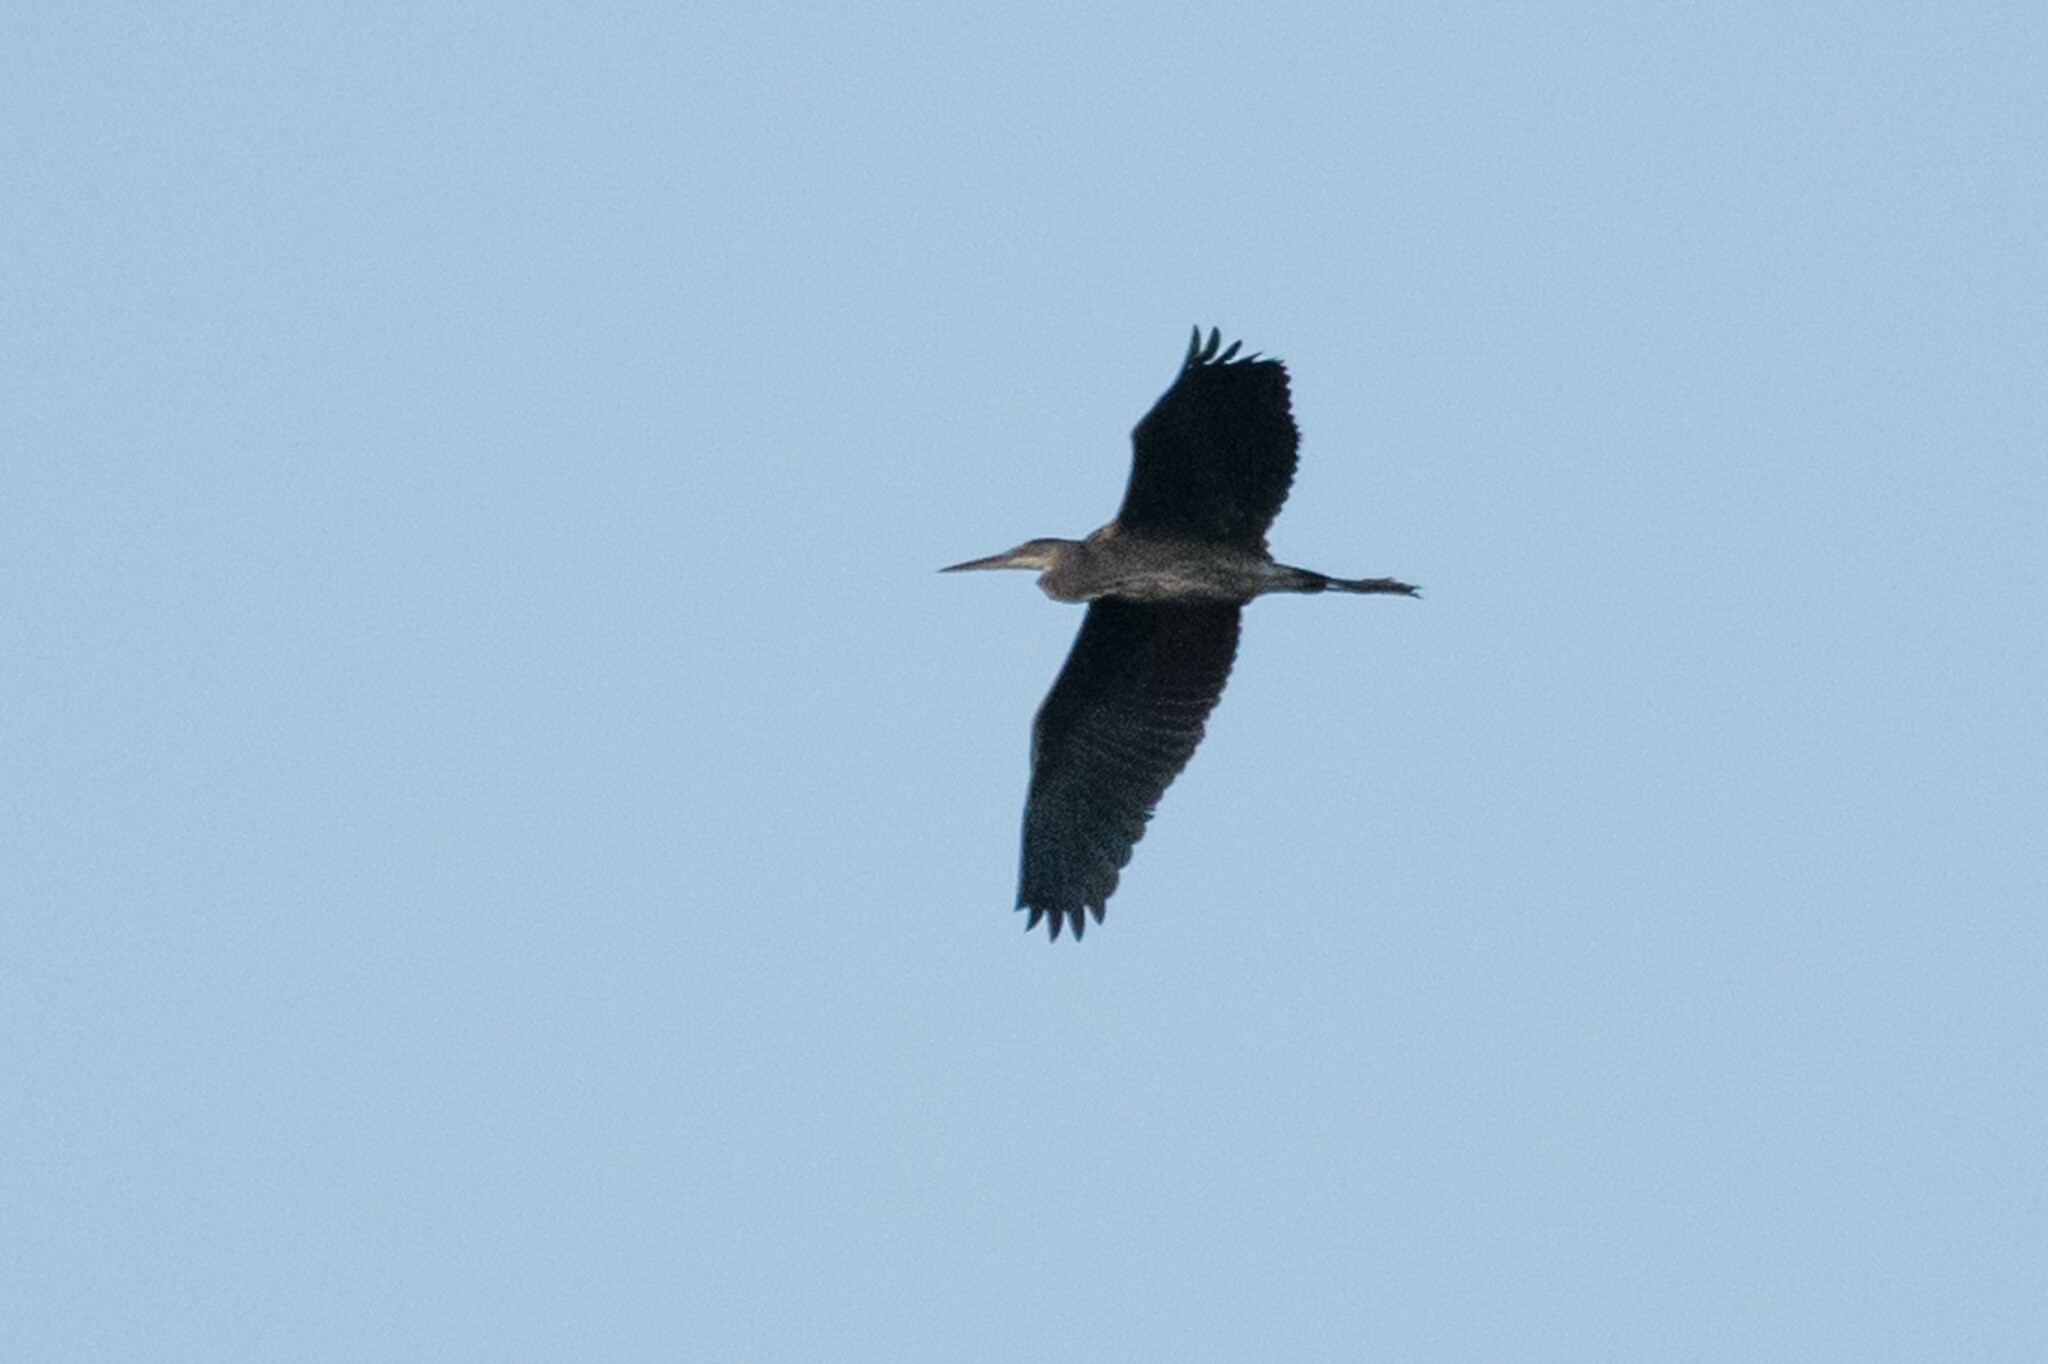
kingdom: Animalia
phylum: Chordata
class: Aves
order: Pelecaniformes
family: Ardeidae
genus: Ardea
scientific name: Ardea herodias
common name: Great blue heron
